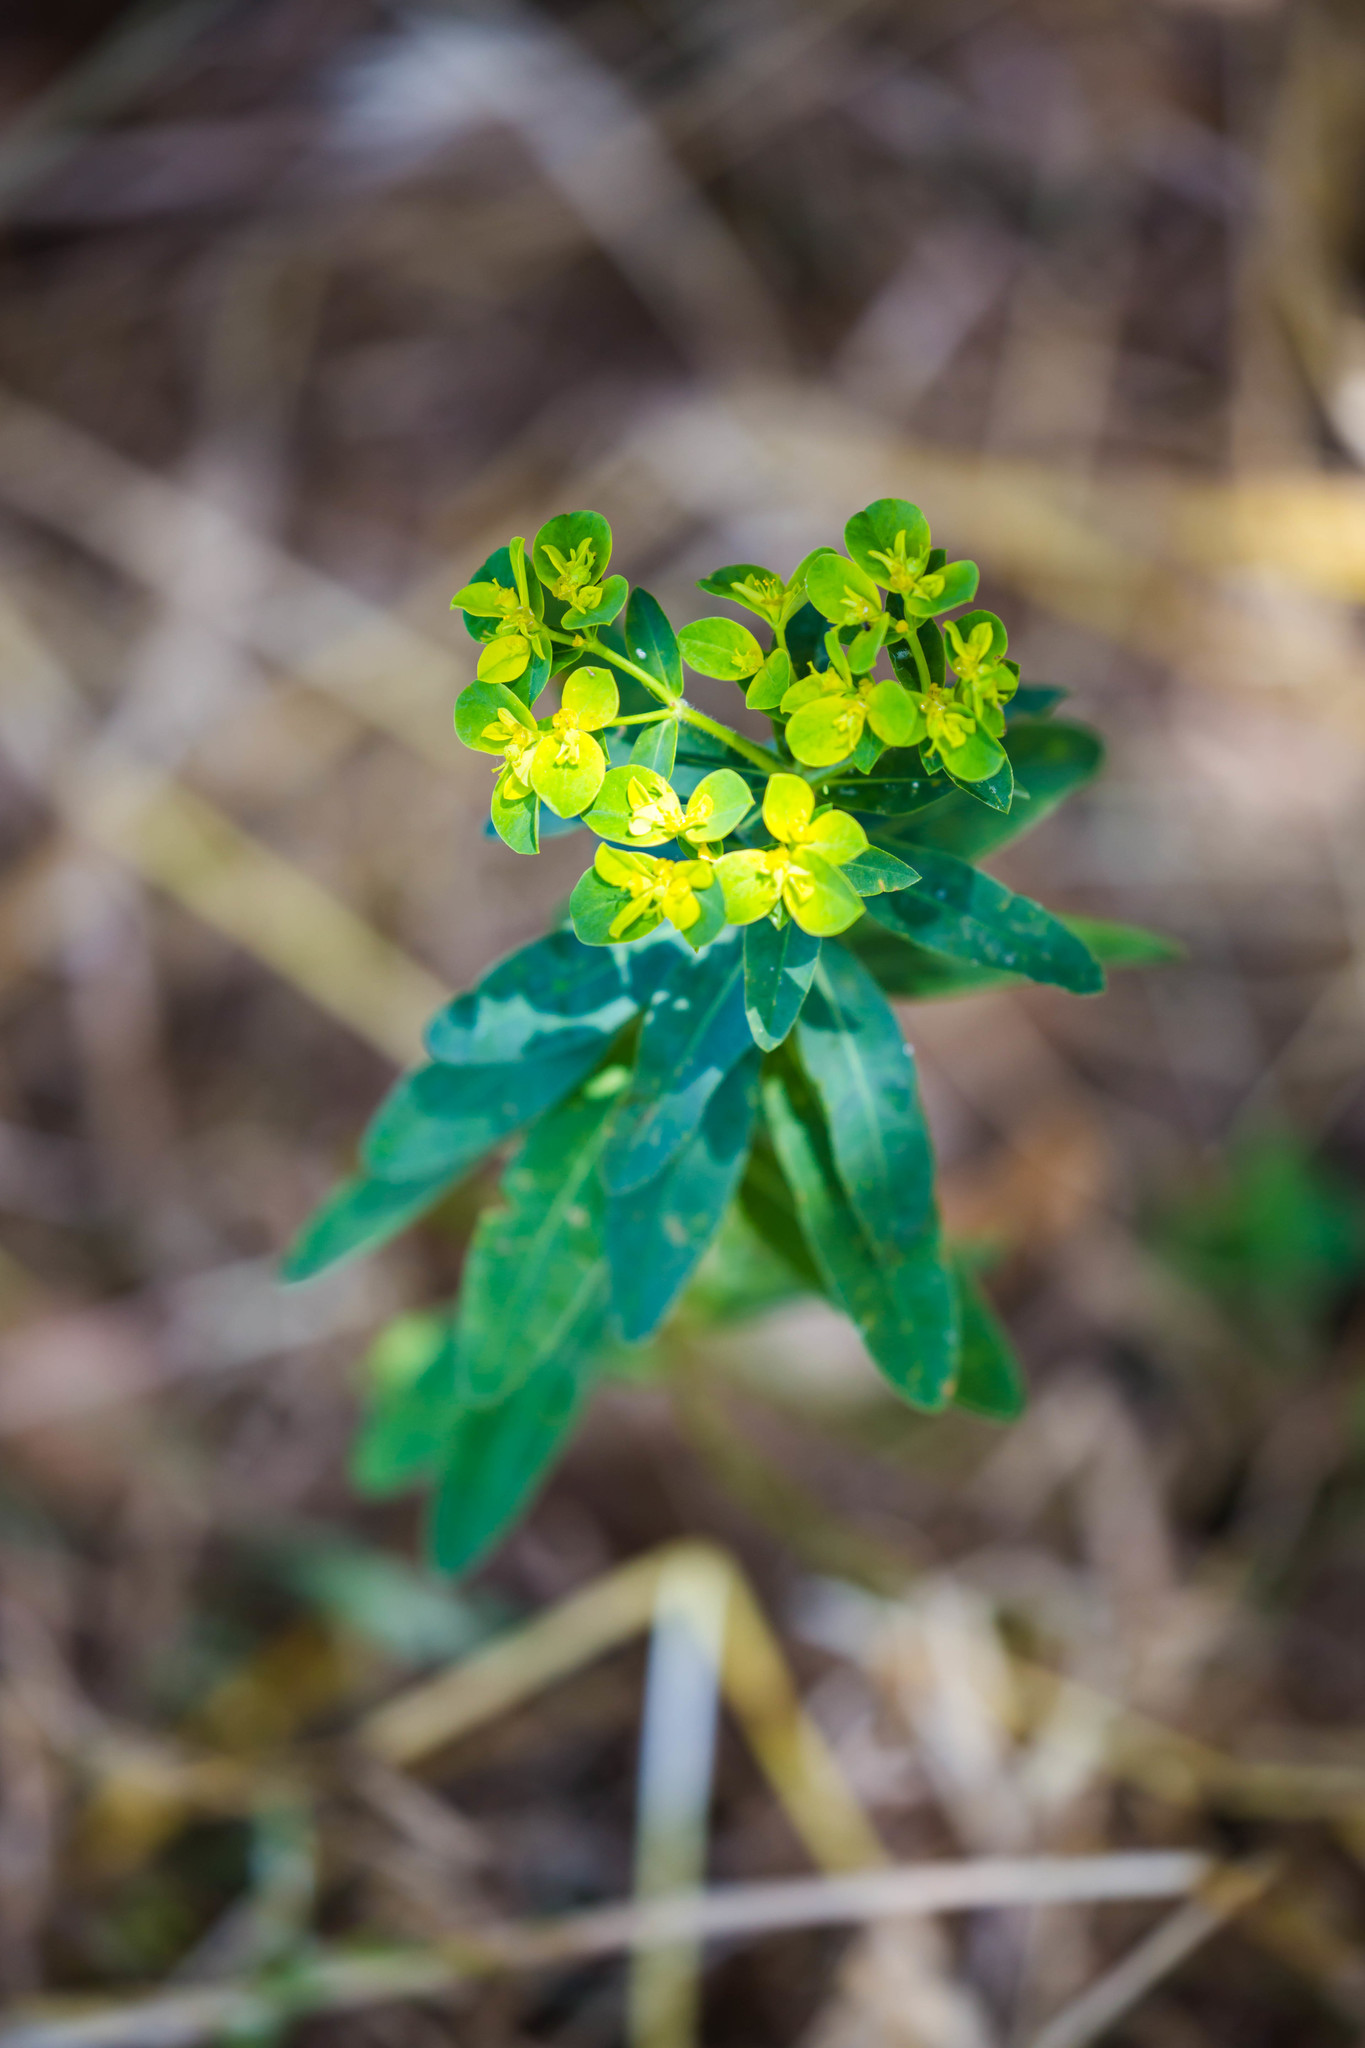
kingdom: Plantae
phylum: Tracheophyta
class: Magnoliopsida
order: Malpighiales
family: Euphorbiaceae
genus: Euphorbia
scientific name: Euphorbia oblongata
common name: Balkan spurge
